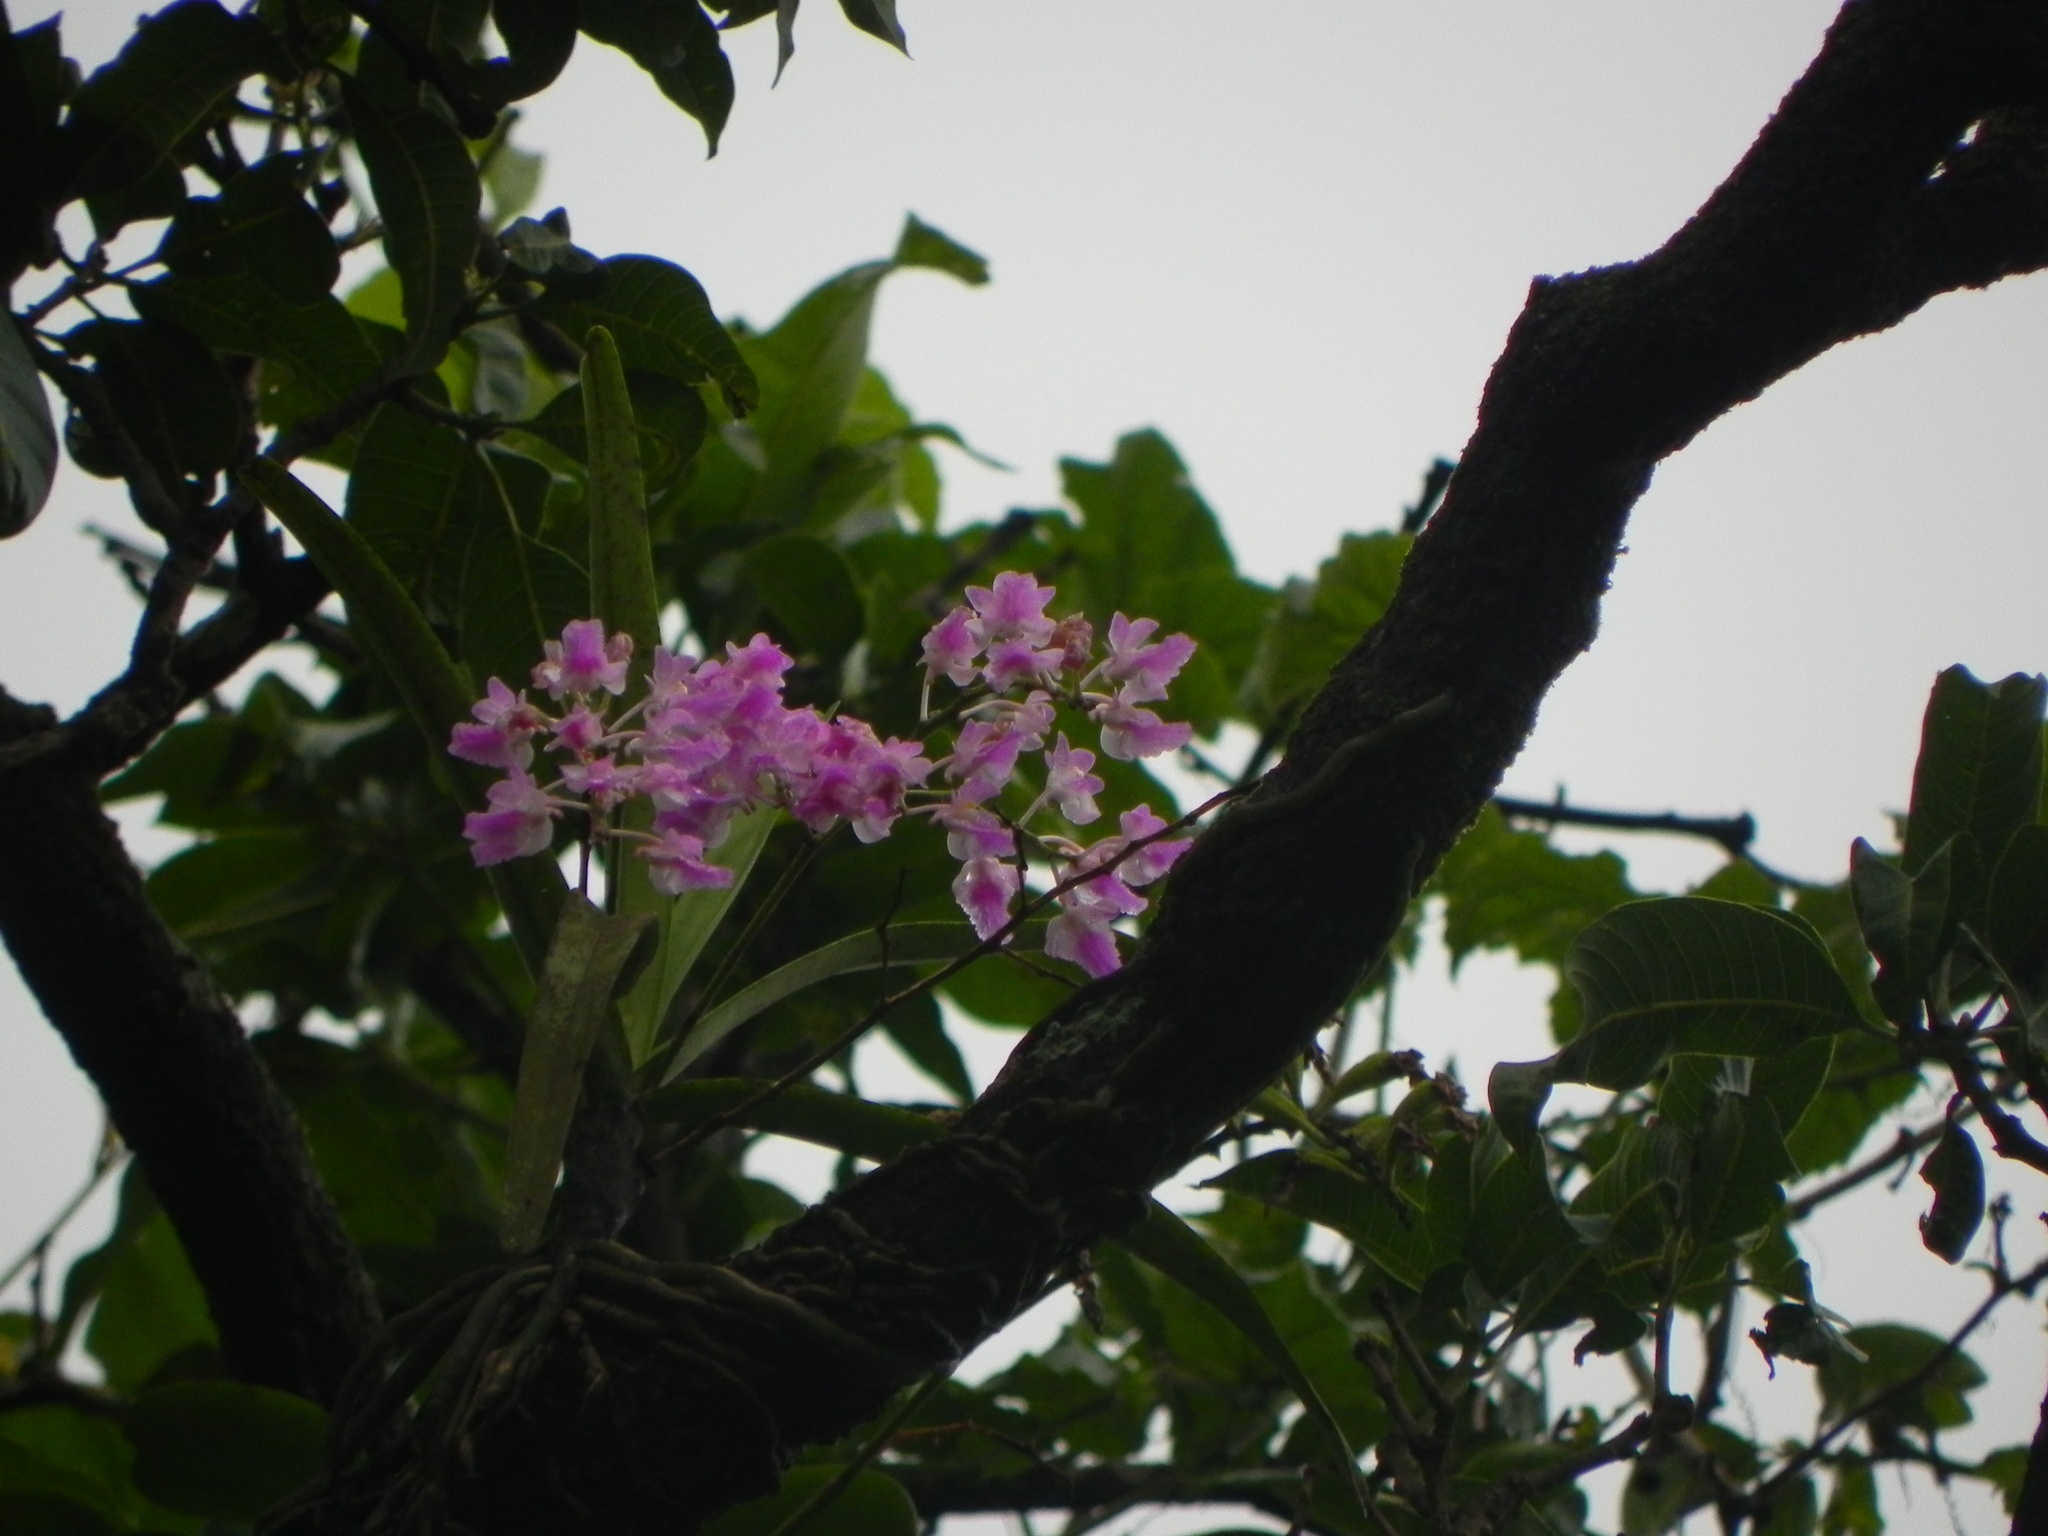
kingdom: Plantae
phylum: Tracheophyta
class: Liliopsida
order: Asparagales
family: Orchidaceae
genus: Aerides
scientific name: Aerides maculosa
